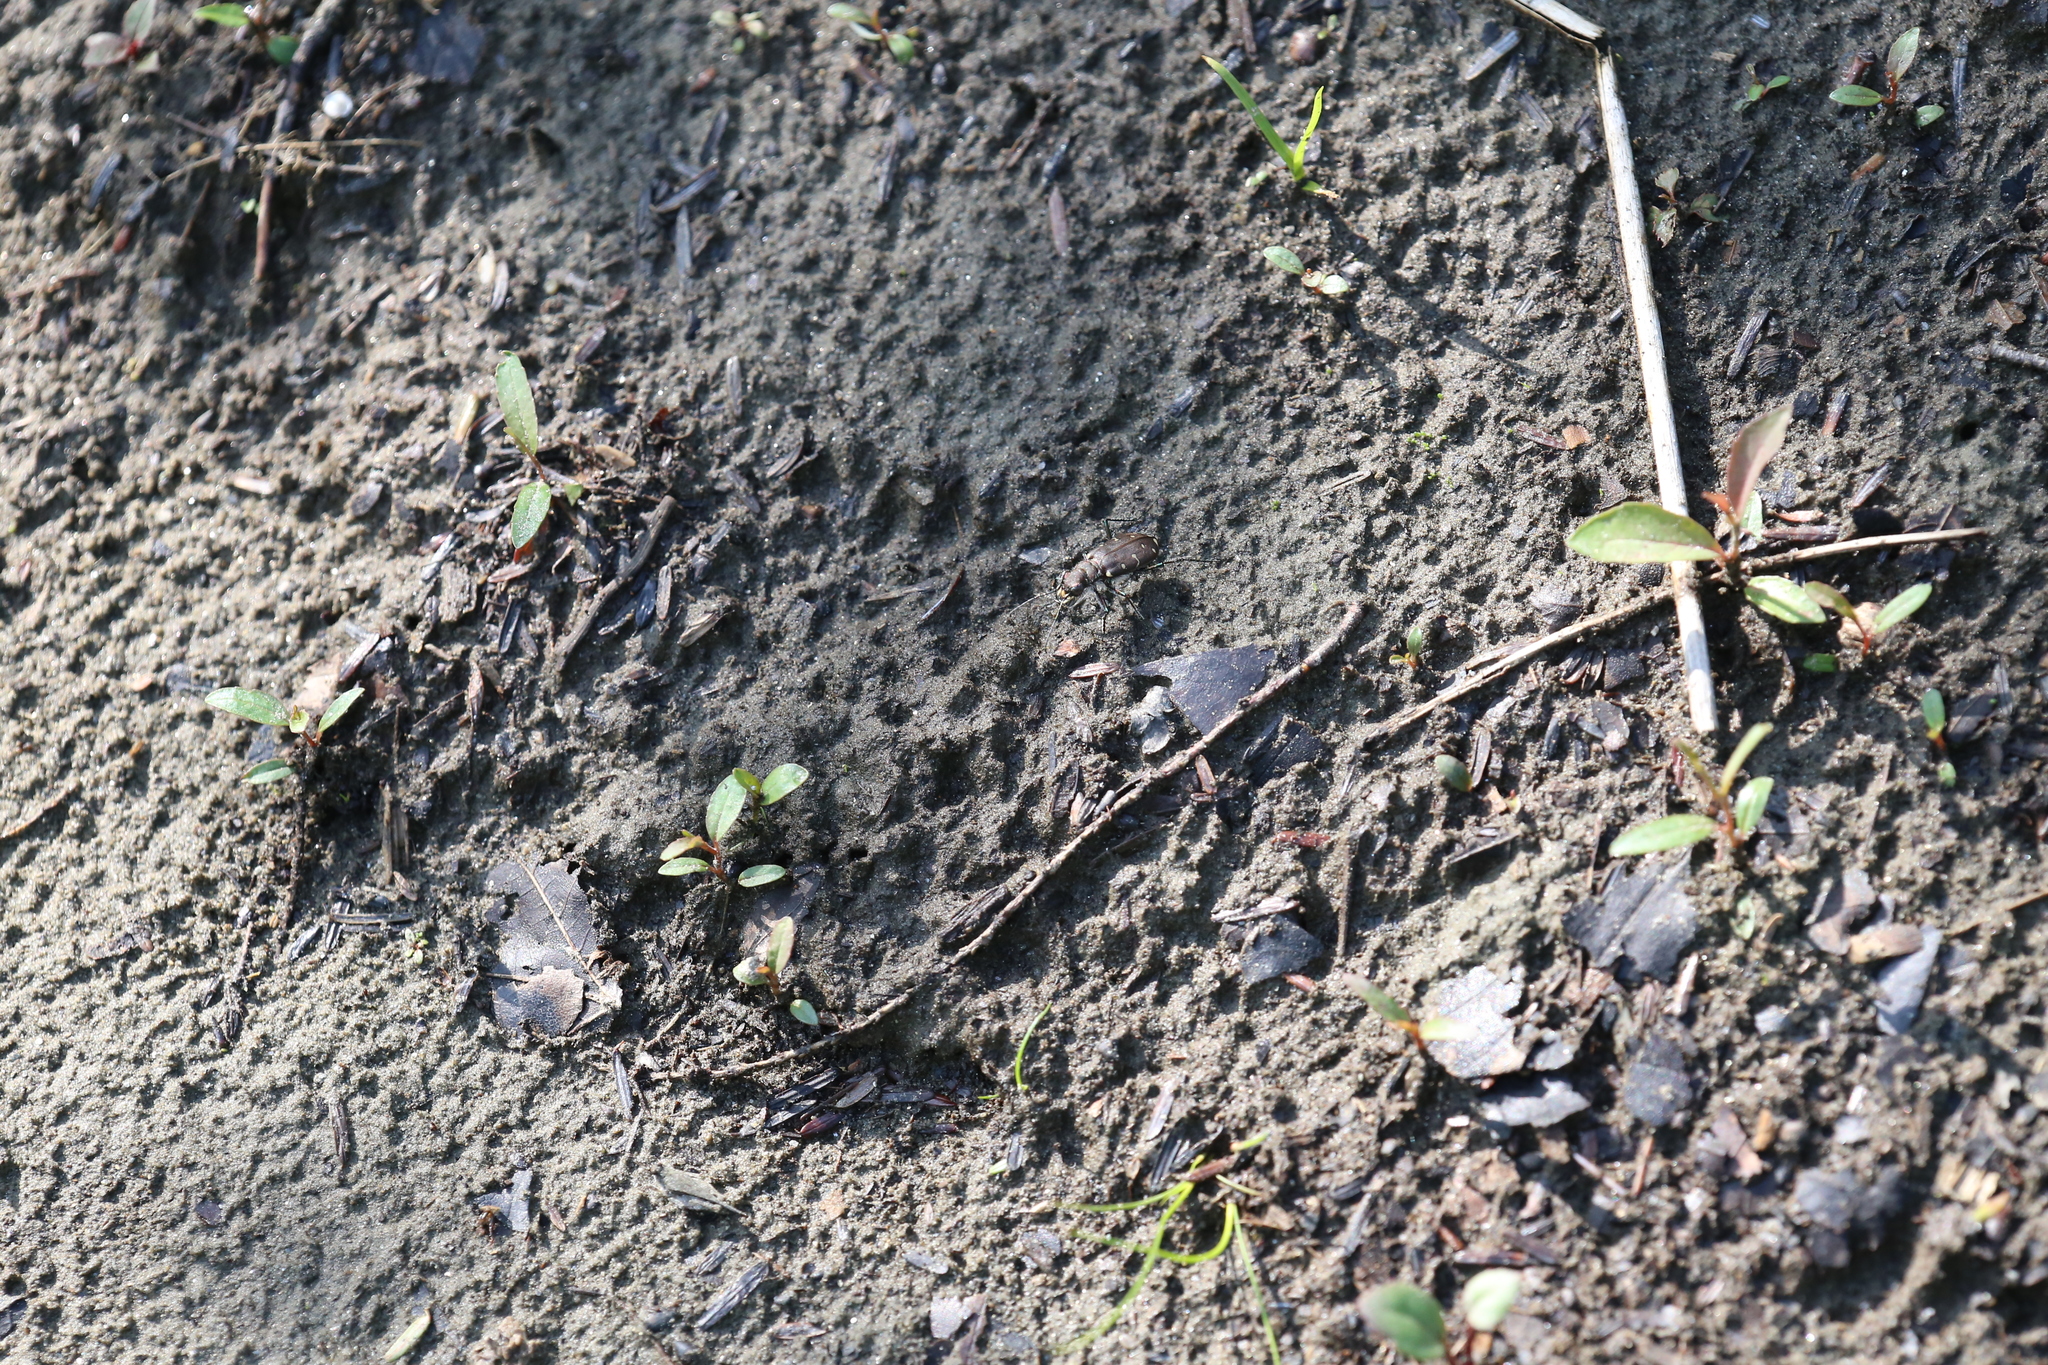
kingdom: Animalia
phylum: Arthropoda
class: Insecta
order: Coleoptera
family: Carabidae
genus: Cicindela
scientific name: Cicindela duodecimguttata
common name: Twelve-spotted tiger beetle
